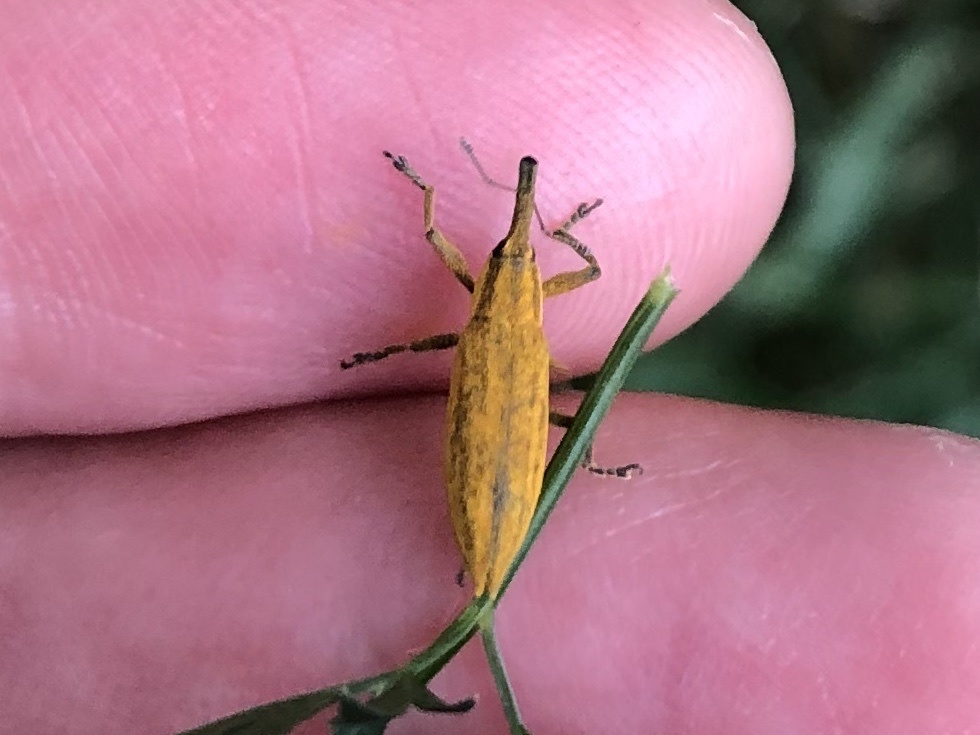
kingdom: Animalia
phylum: Arthropoda
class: Insecta
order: Coleoptera
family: Curculionidae
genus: Lixus
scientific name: Lixus iridis
